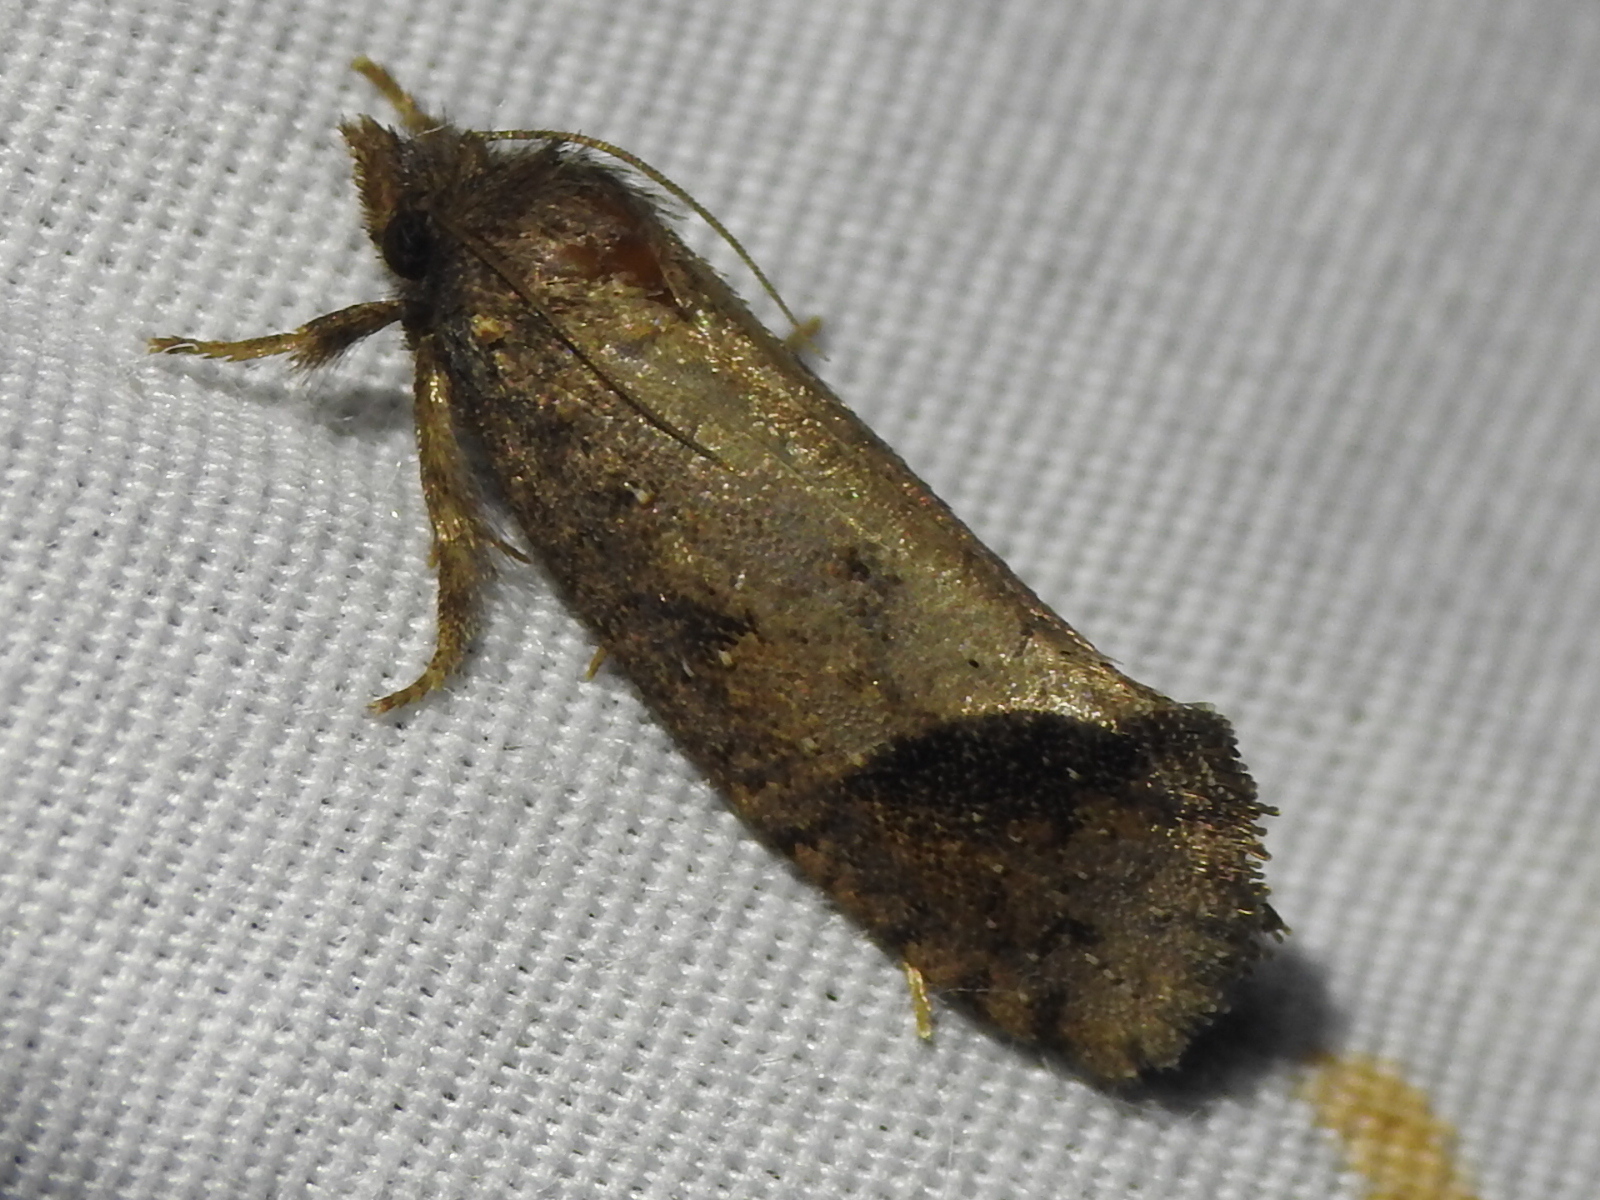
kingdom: Animalia
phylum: Arthropoda
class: Insecta
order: Lepidoptera
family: Tineidae
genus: Acrolophus
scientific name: Acrolophus texanella
